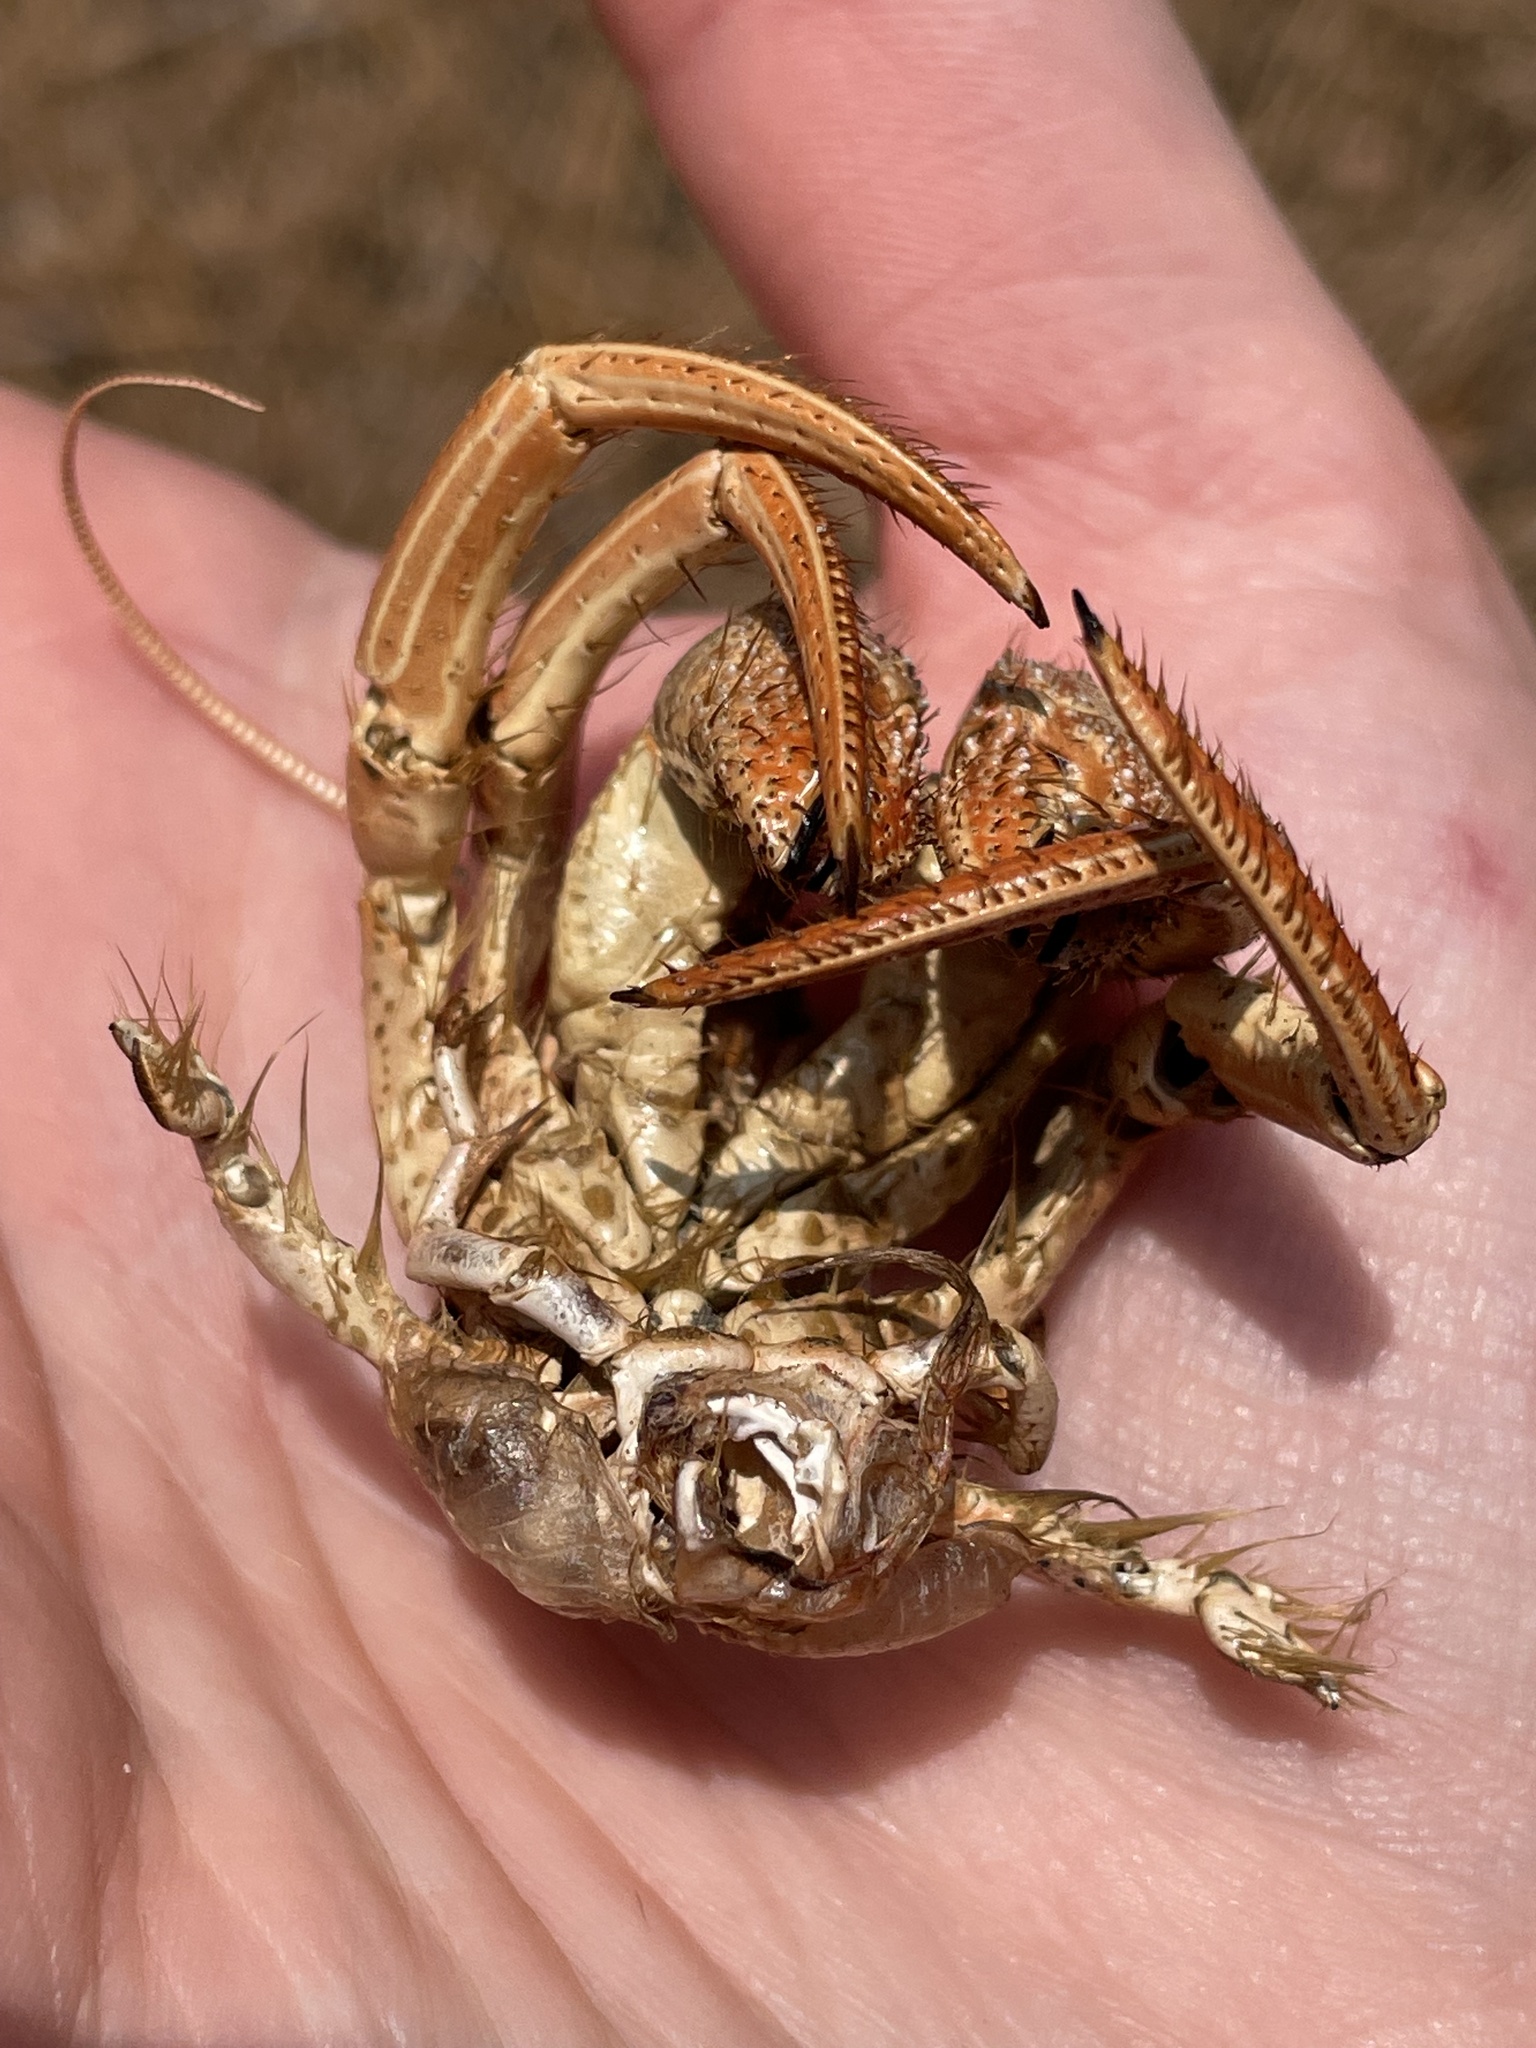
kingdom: Animalia
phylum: Arthropoda
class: Malacostraca
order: Decapoda
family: Diogenidae
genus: Clibanarius
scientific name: Clibanarius vittatus
